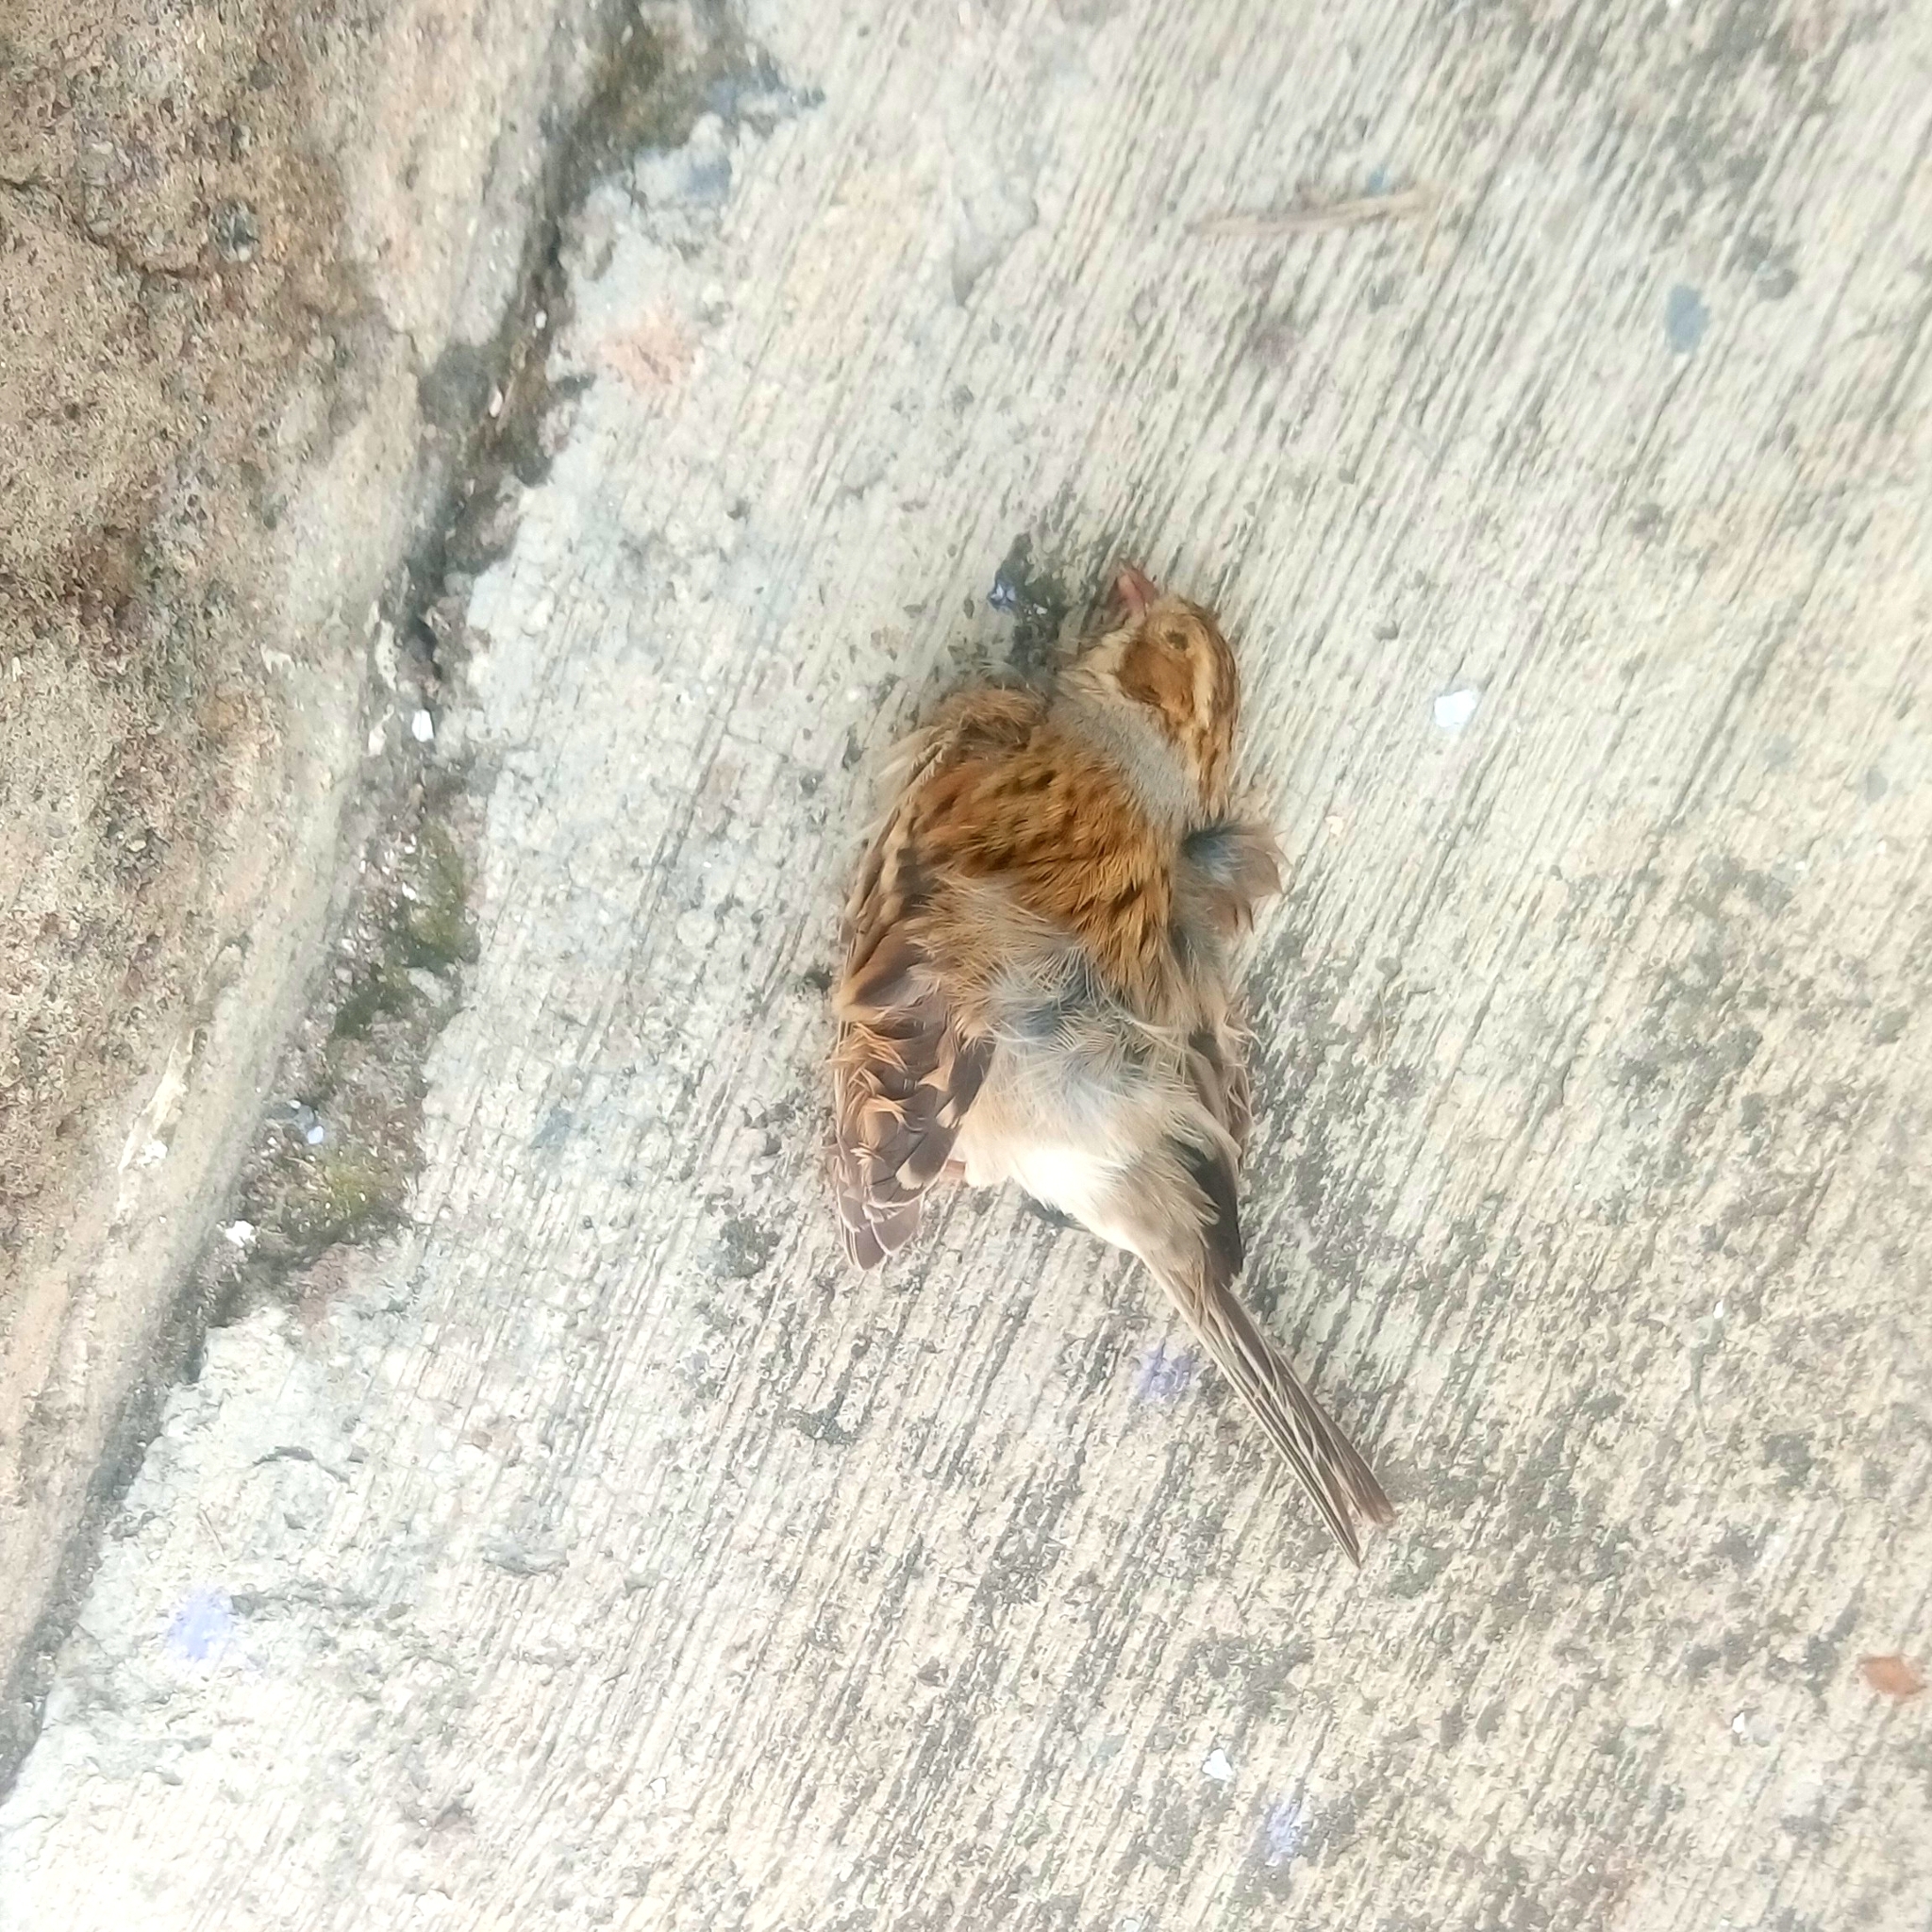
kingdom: Animalia
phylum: Chordata
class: Aves
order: Passeriformes
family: Passerellidae
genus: Spizella
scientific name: Spizella pallida
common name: Clay-colored sparrow
